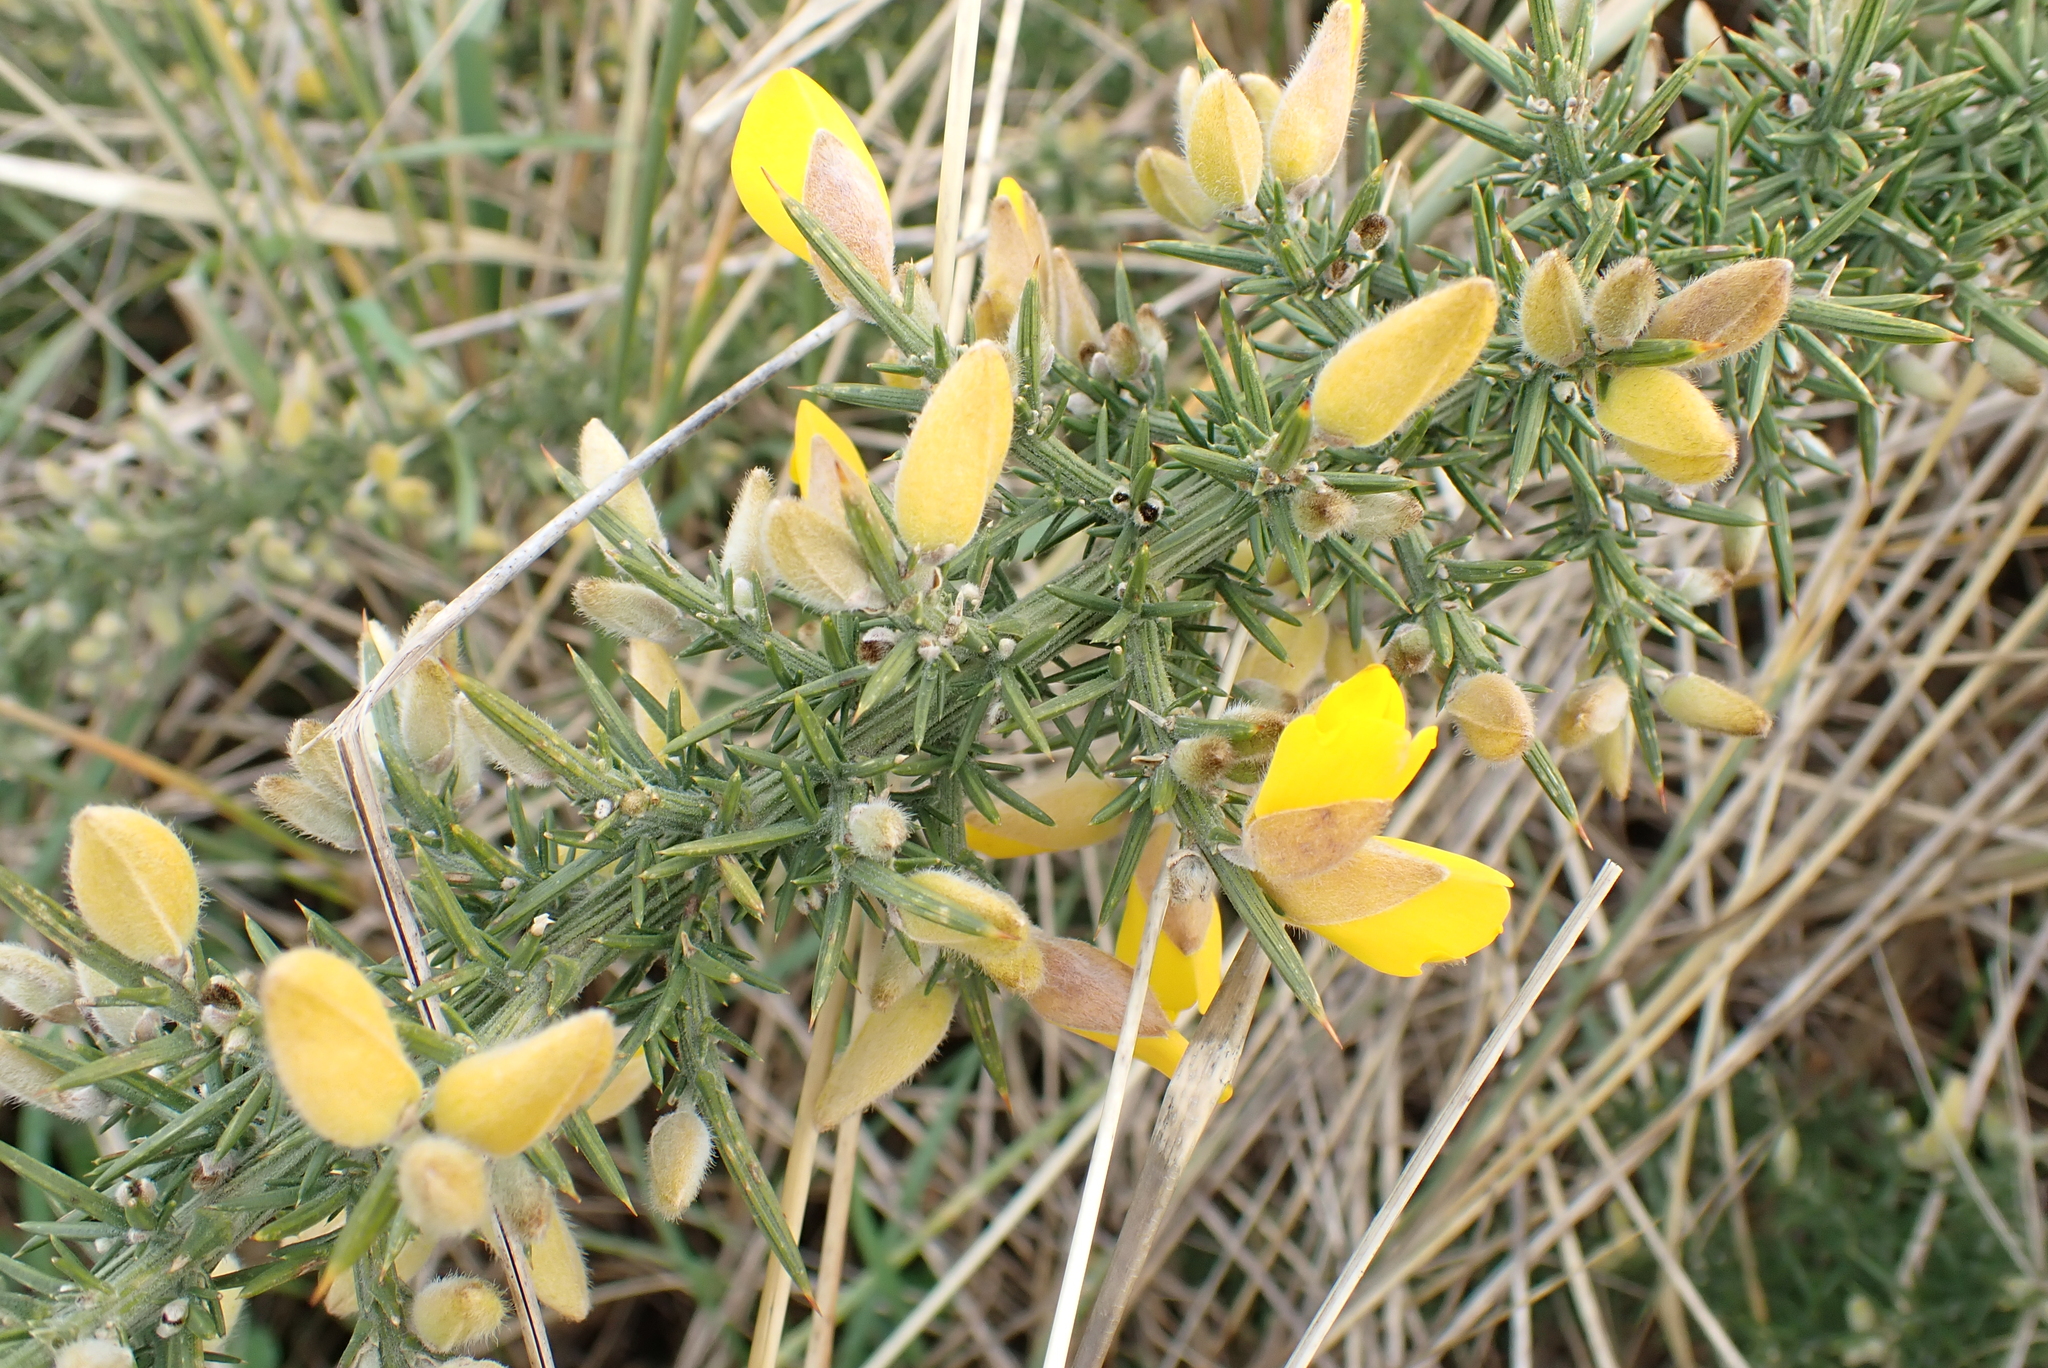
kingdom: Plantae
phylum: Tracheophyta
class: Magnoliopsida
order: Fabales
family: Fabaceae
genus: Ulex
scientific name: Ulex europaeus
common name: Common gorse
